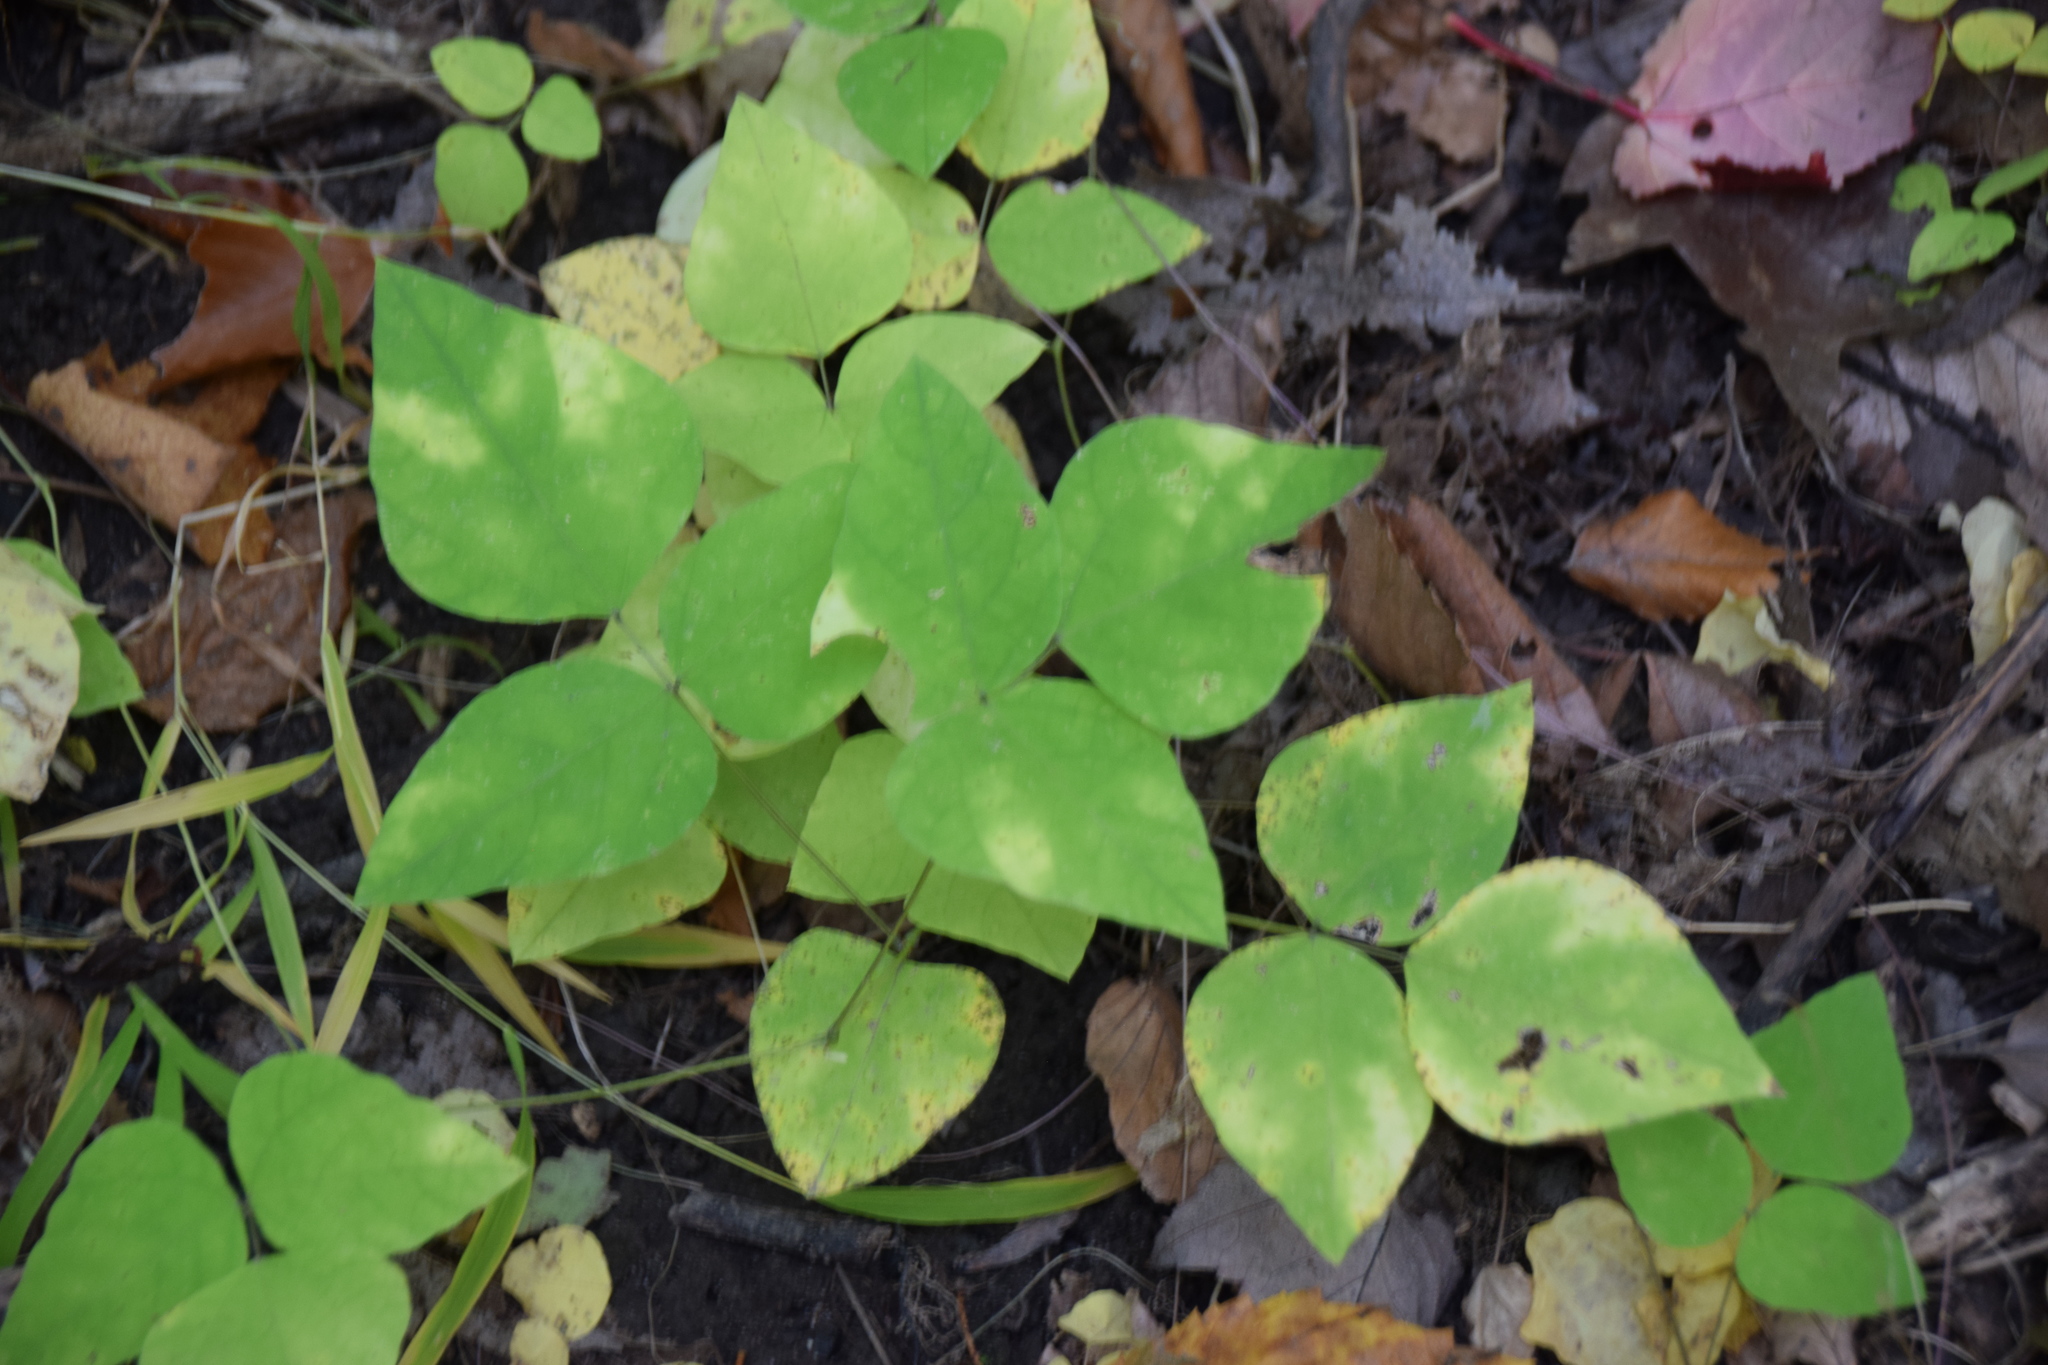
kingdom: Plantae
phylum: Tracheophyta
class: Magnoliopsida
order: Fabales
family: Fabaceae
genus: Amphicarpaea
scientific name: Amphicarpaea bracteata
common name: American hog peanut
